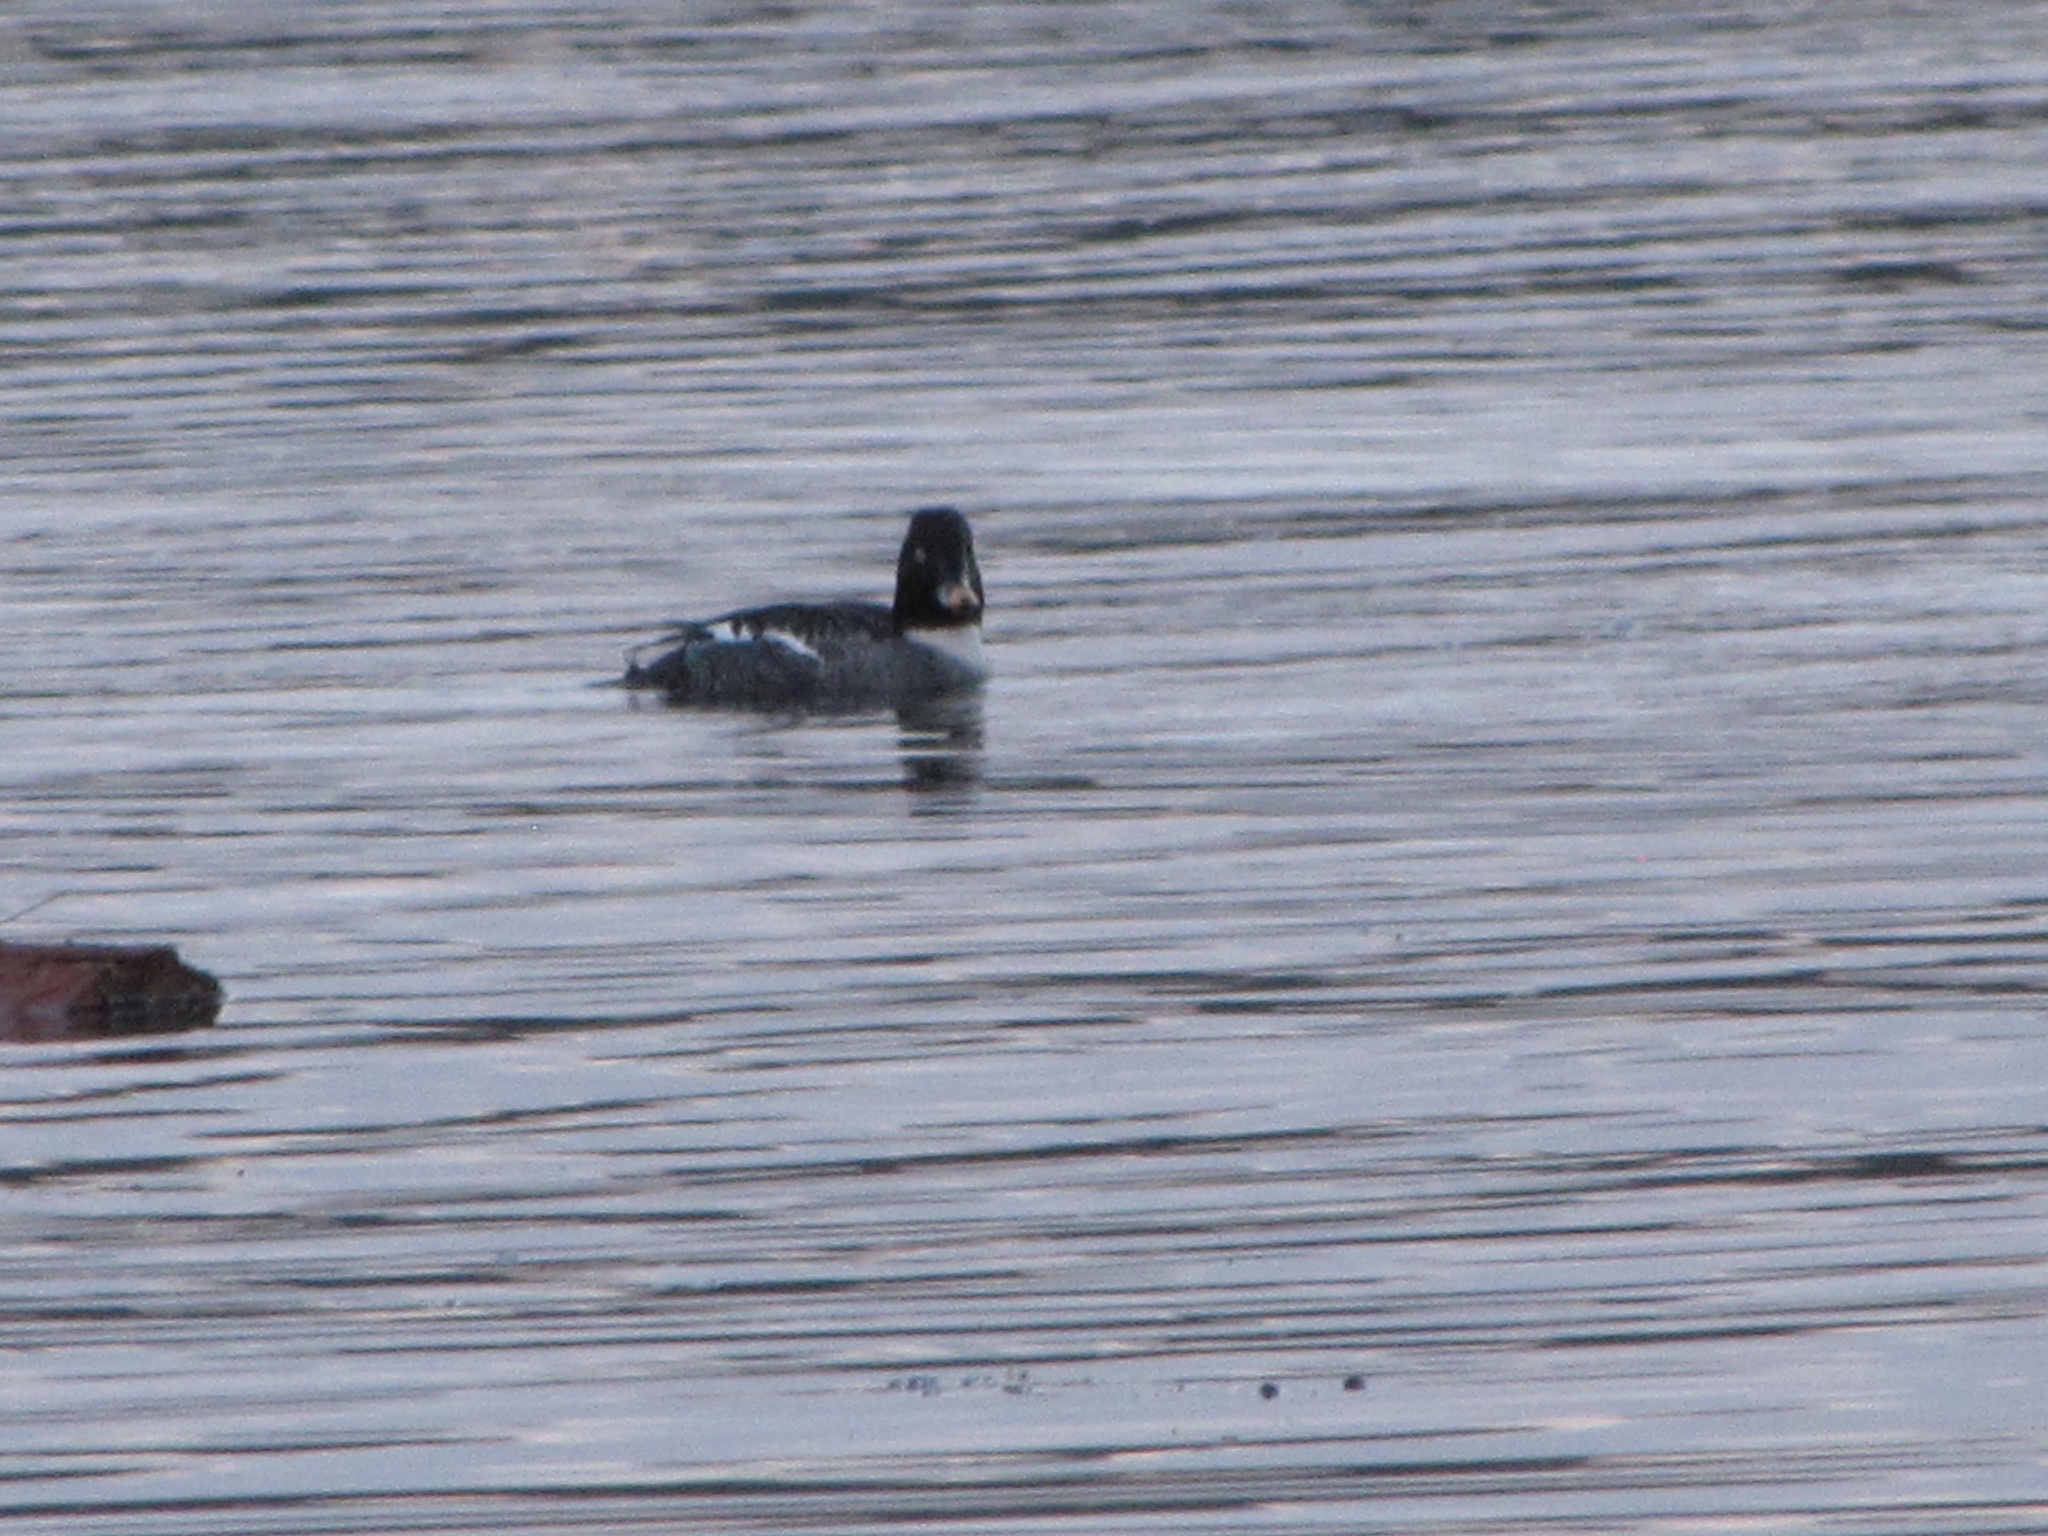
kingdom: Animalia
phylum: Chordata
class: Aves
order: Anseriformes
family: Anatidae
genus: Bucephala
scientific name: Bucephala clangula
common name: Common goldeneye
